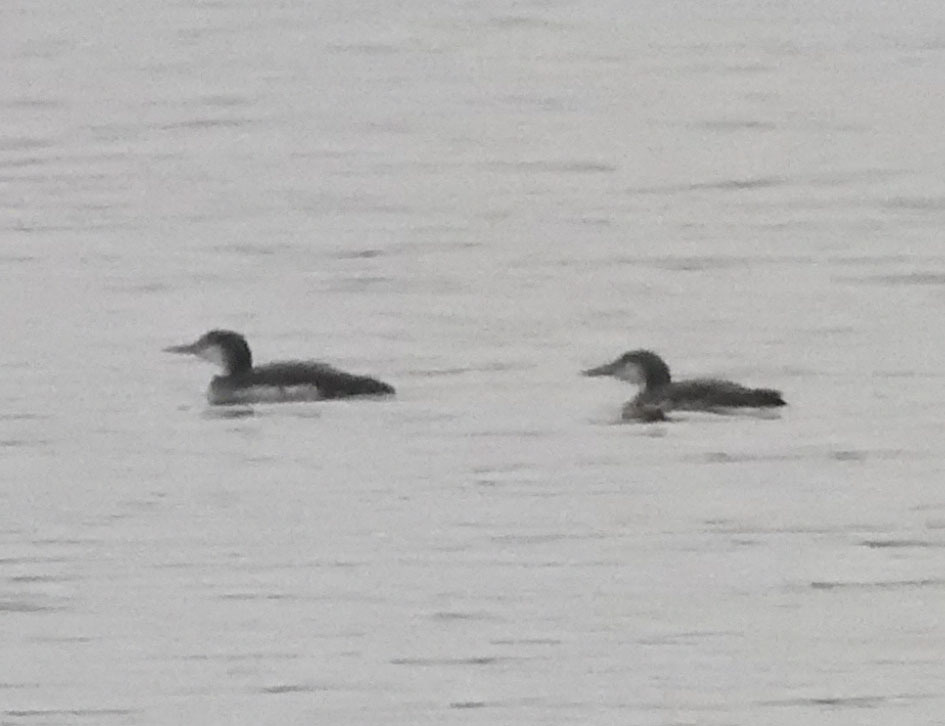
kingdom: Animalia
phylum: Chordata
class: Aves
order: Gaviiformes
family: Gaviidae
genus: Gavia
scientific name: Gavia immer
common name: Common loon
